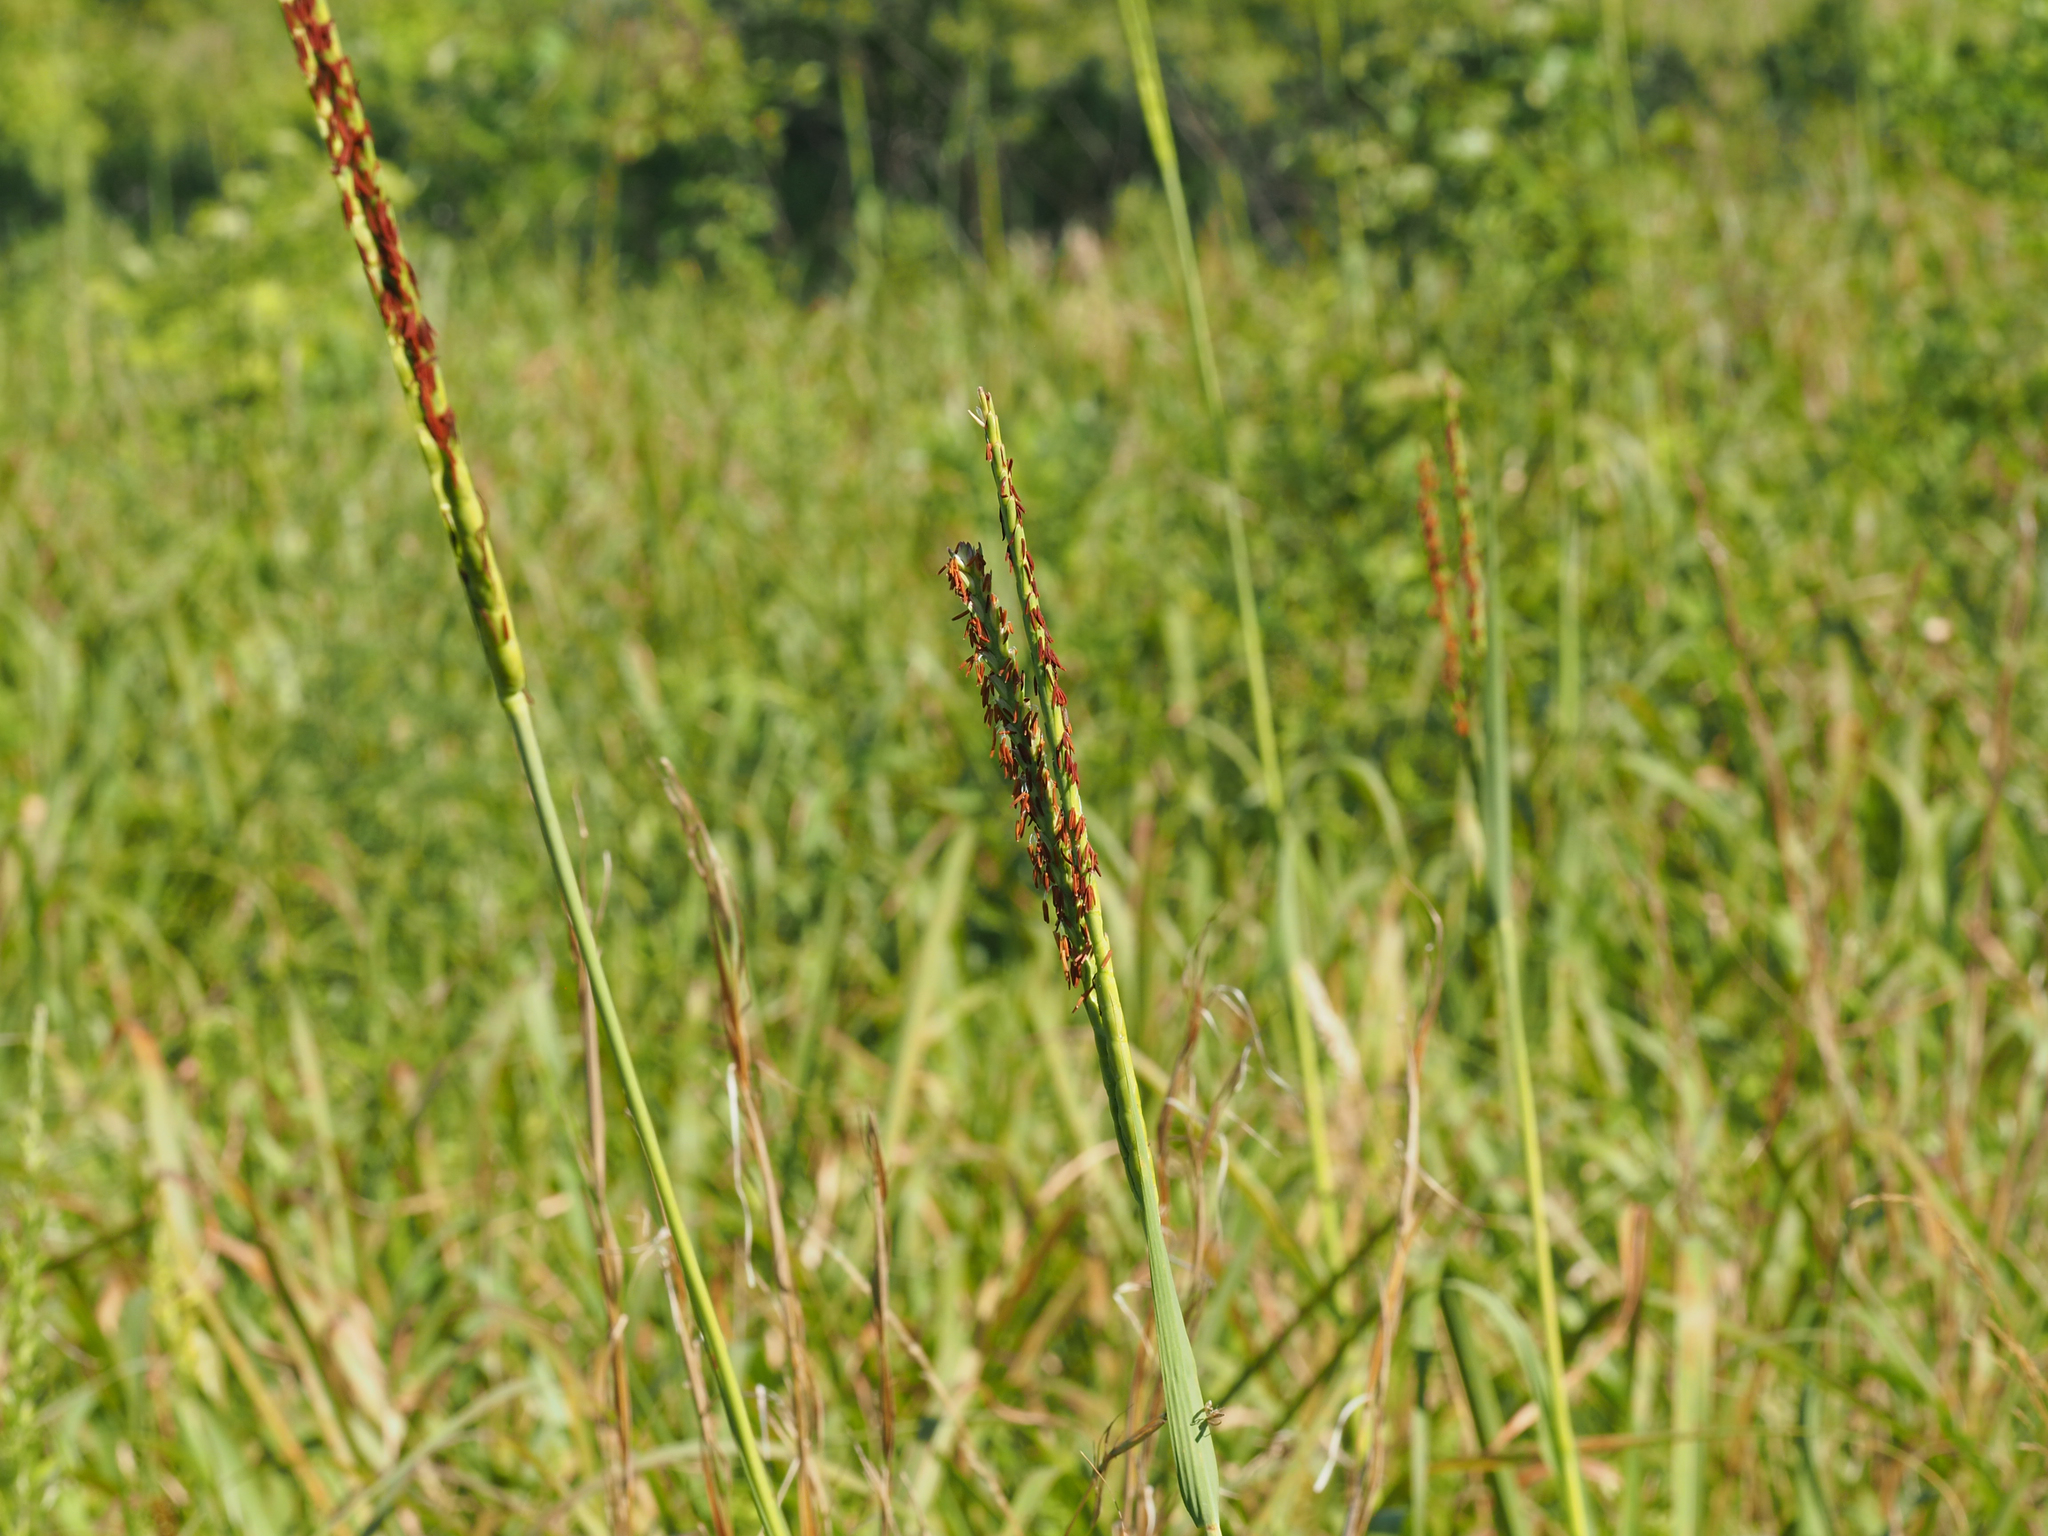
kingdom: Plantae
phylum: Tracheophyta
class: Liliopsida
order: Poales
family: Poaceae
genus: Tripsacum
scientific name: Tripsacum dactyloides
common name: Buffalo-grass
